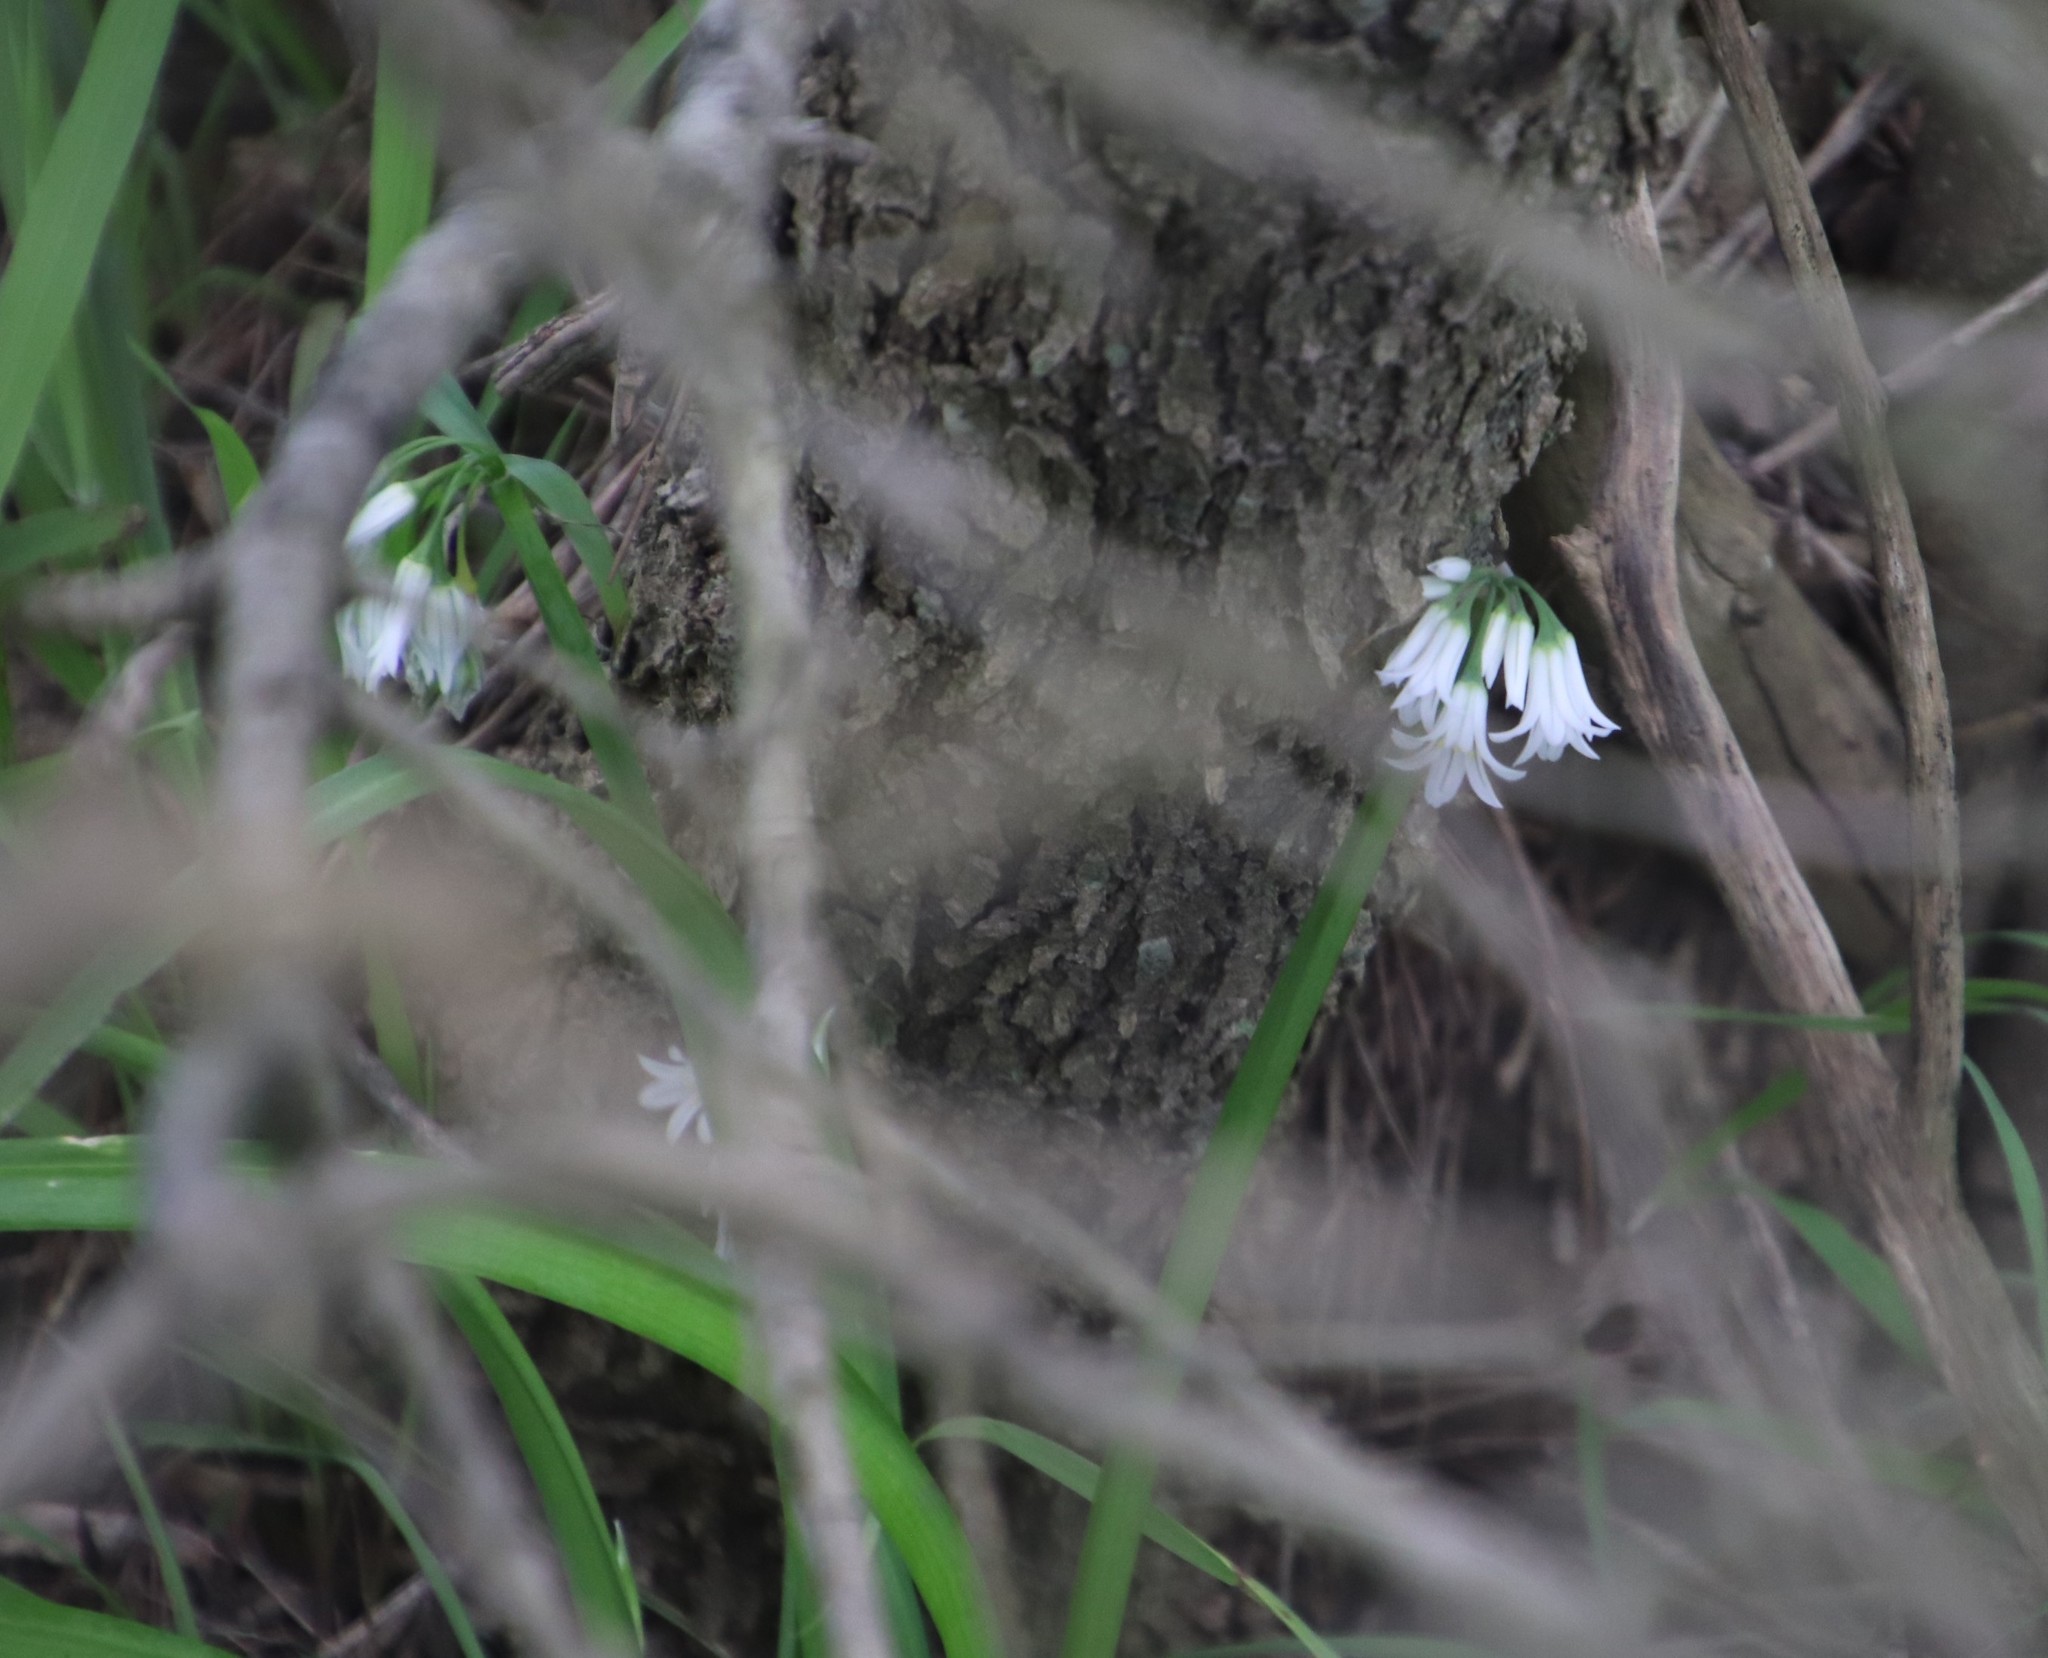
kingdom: Plantae
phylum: Tracheophyta
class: Liliopsida
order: Asparagales
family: Amaryllidaceae
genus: Allium
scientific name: Allium triquetrum
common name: Three-cornered garlic
